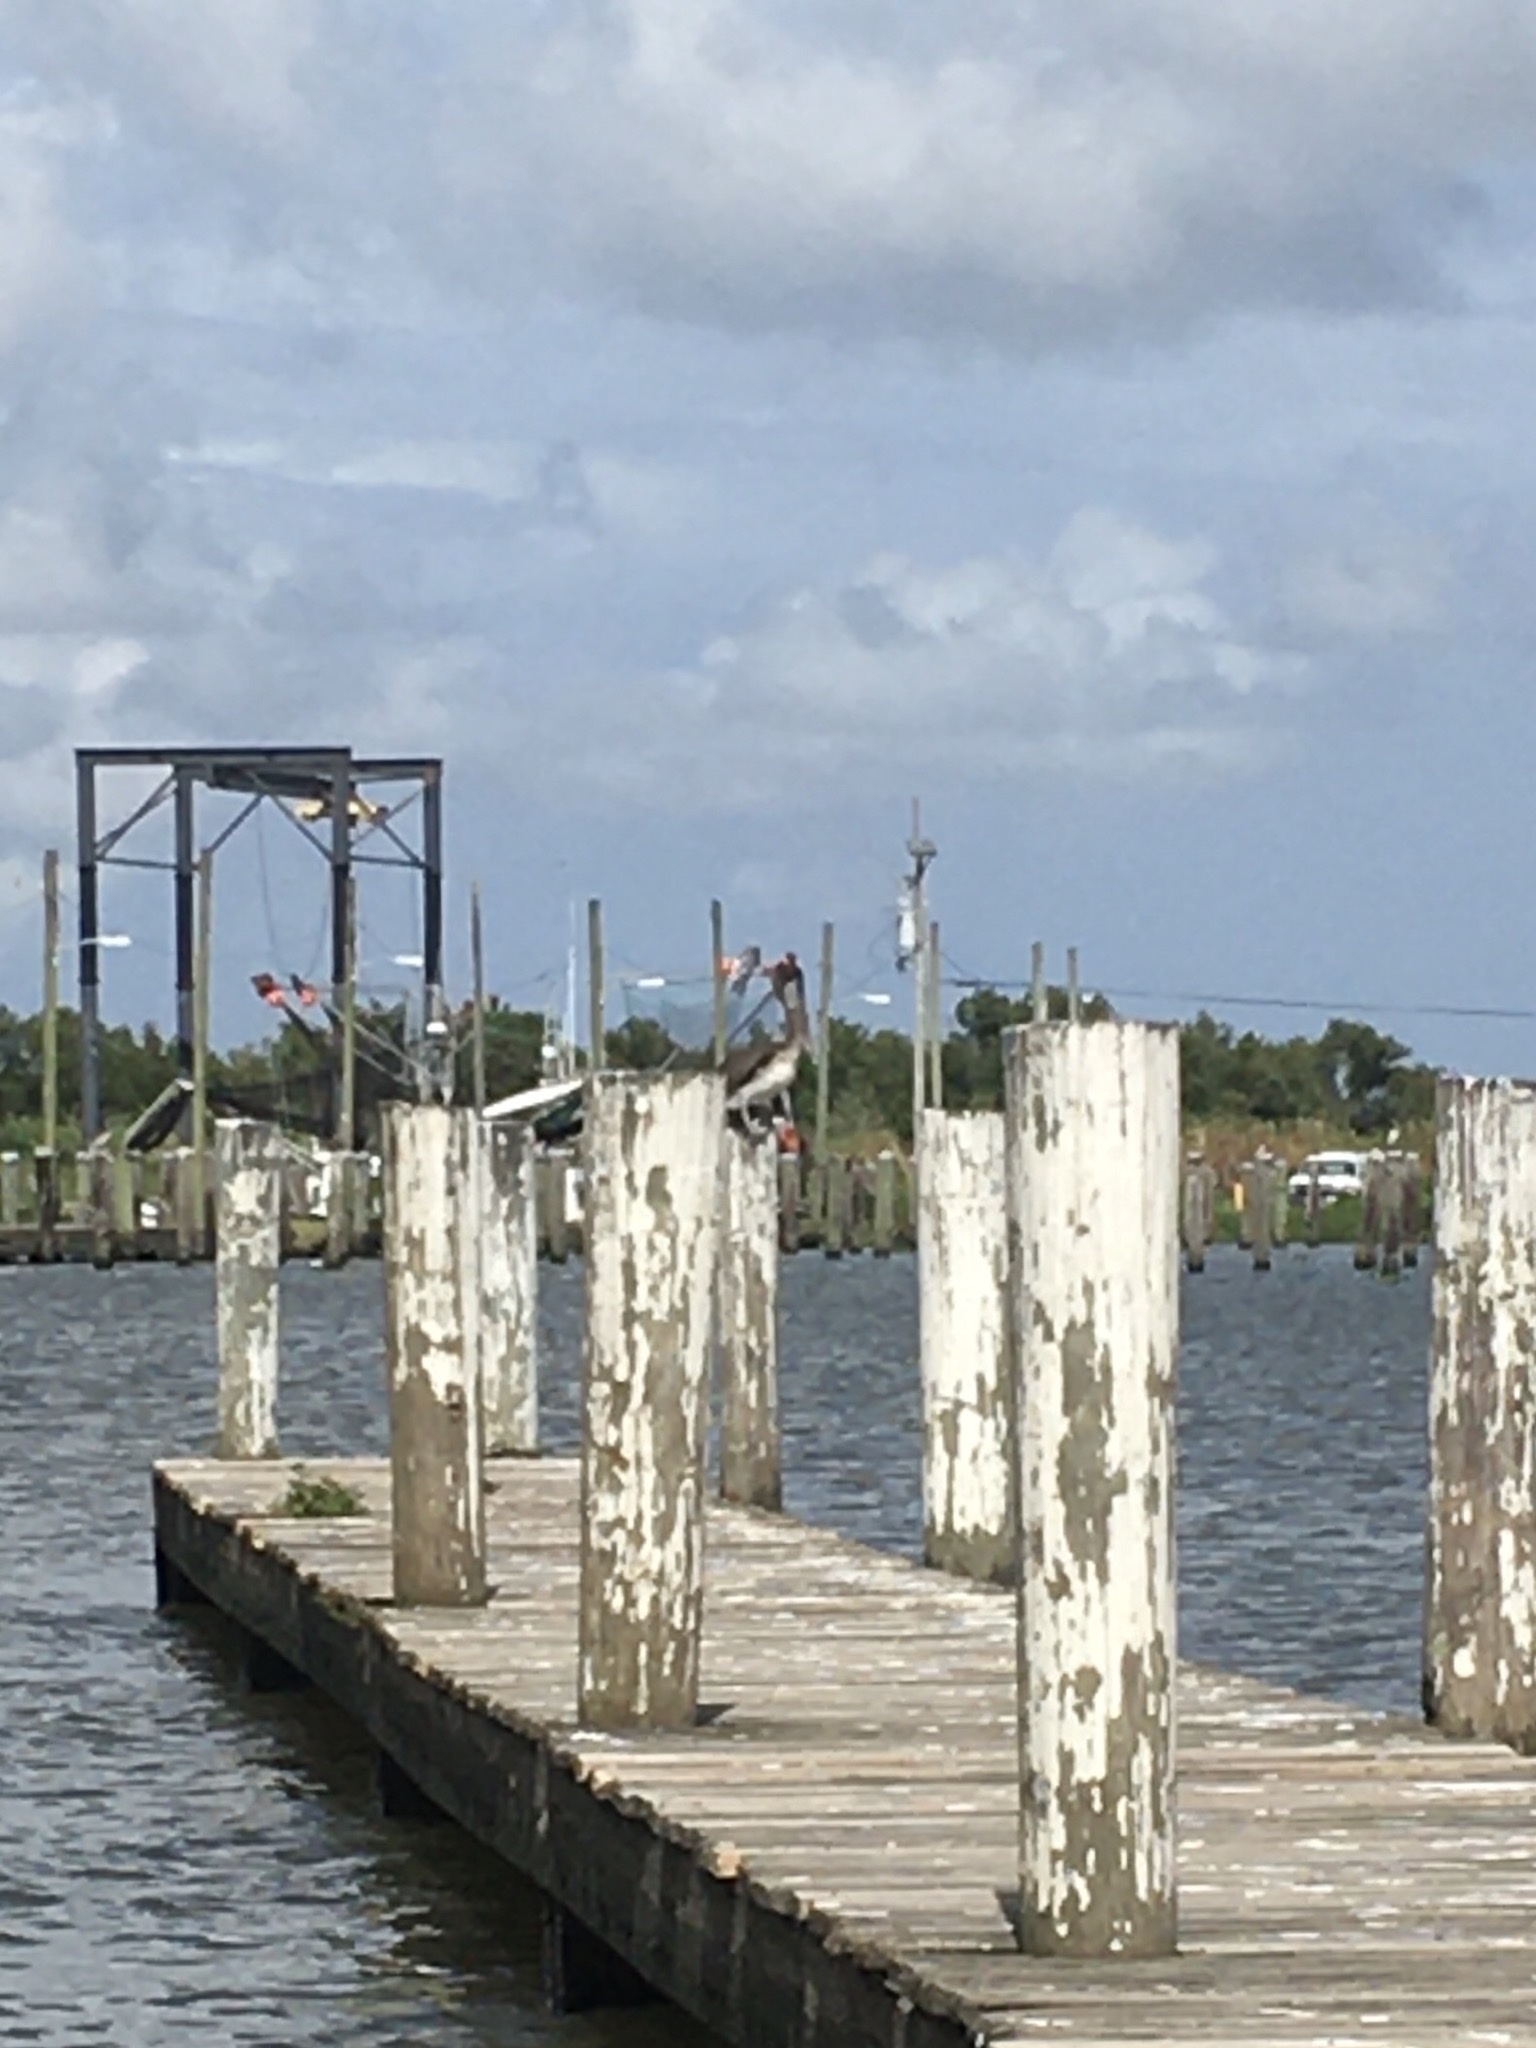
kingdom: Animalia
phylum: Chordata
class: Aves
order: Pelecaniformes
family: Pelecanidae
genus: Pelecanus
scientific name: Pelecanus occidentalis
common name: Brown pelican
